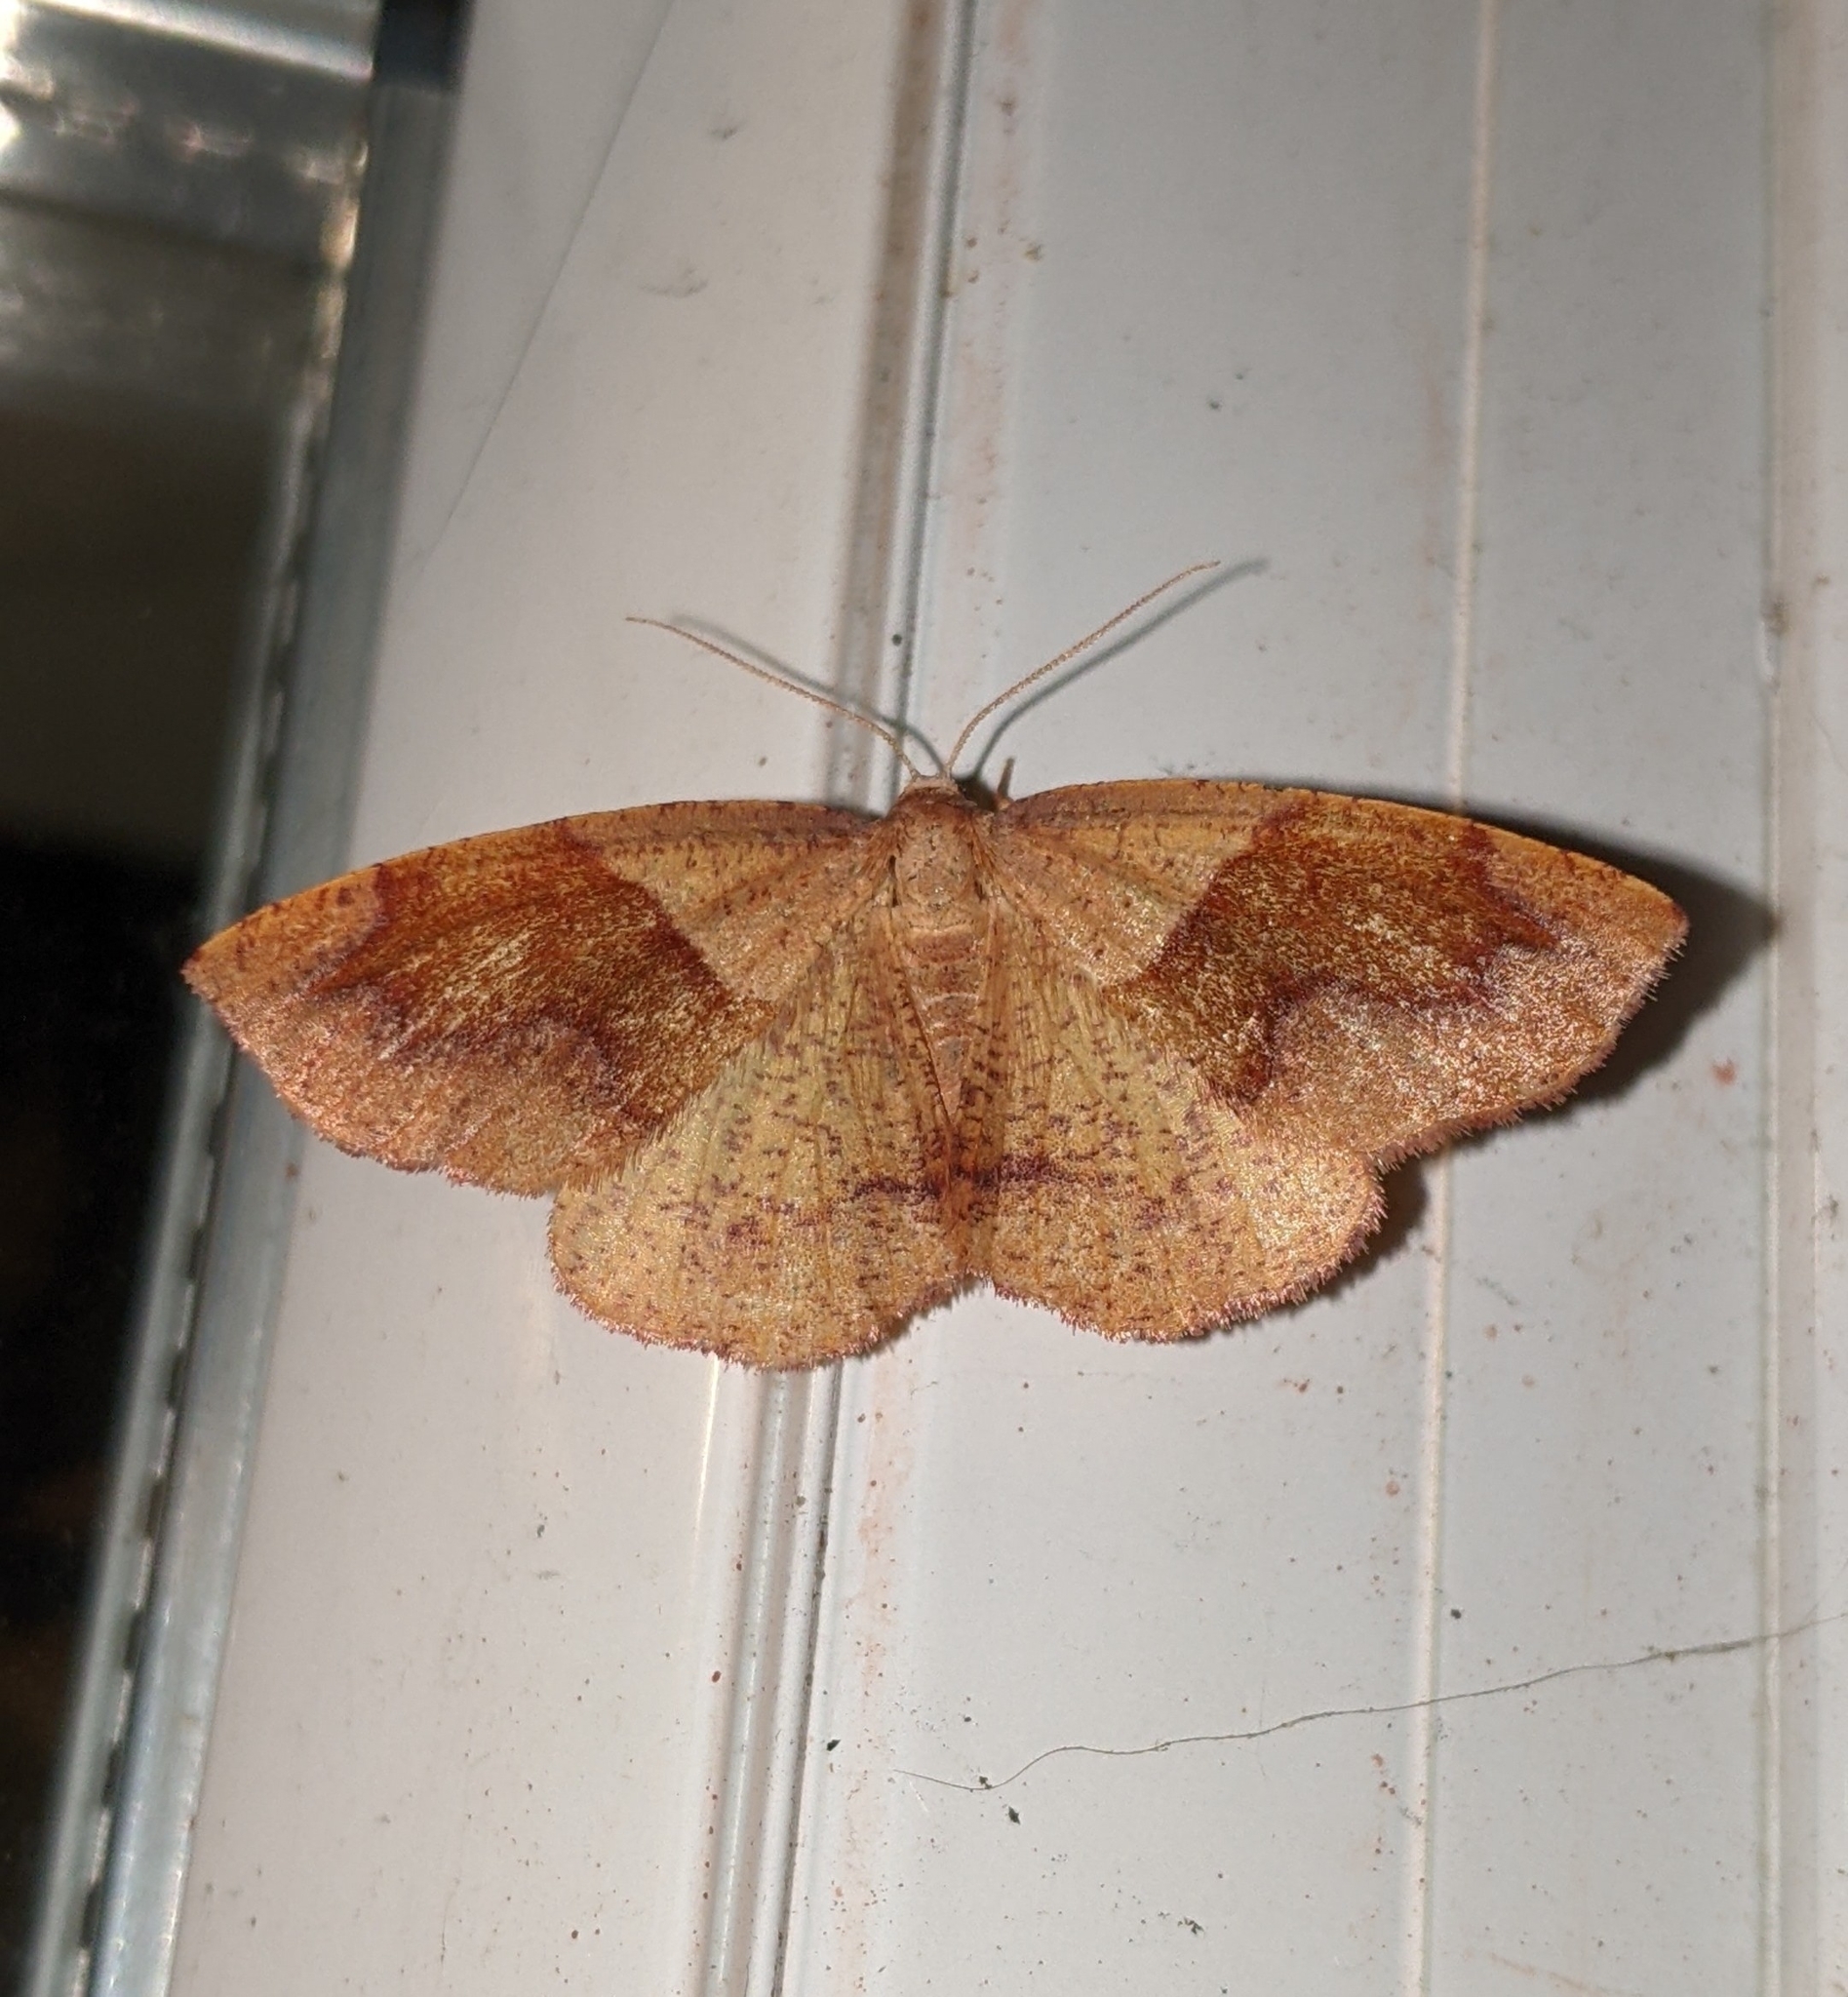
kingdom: Animalia
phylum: Arthropoda
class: Insecta
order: Lepidoptera
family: Geometridae
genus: Plagodis
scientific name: Plagodis pulveraria
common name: Barred umber
